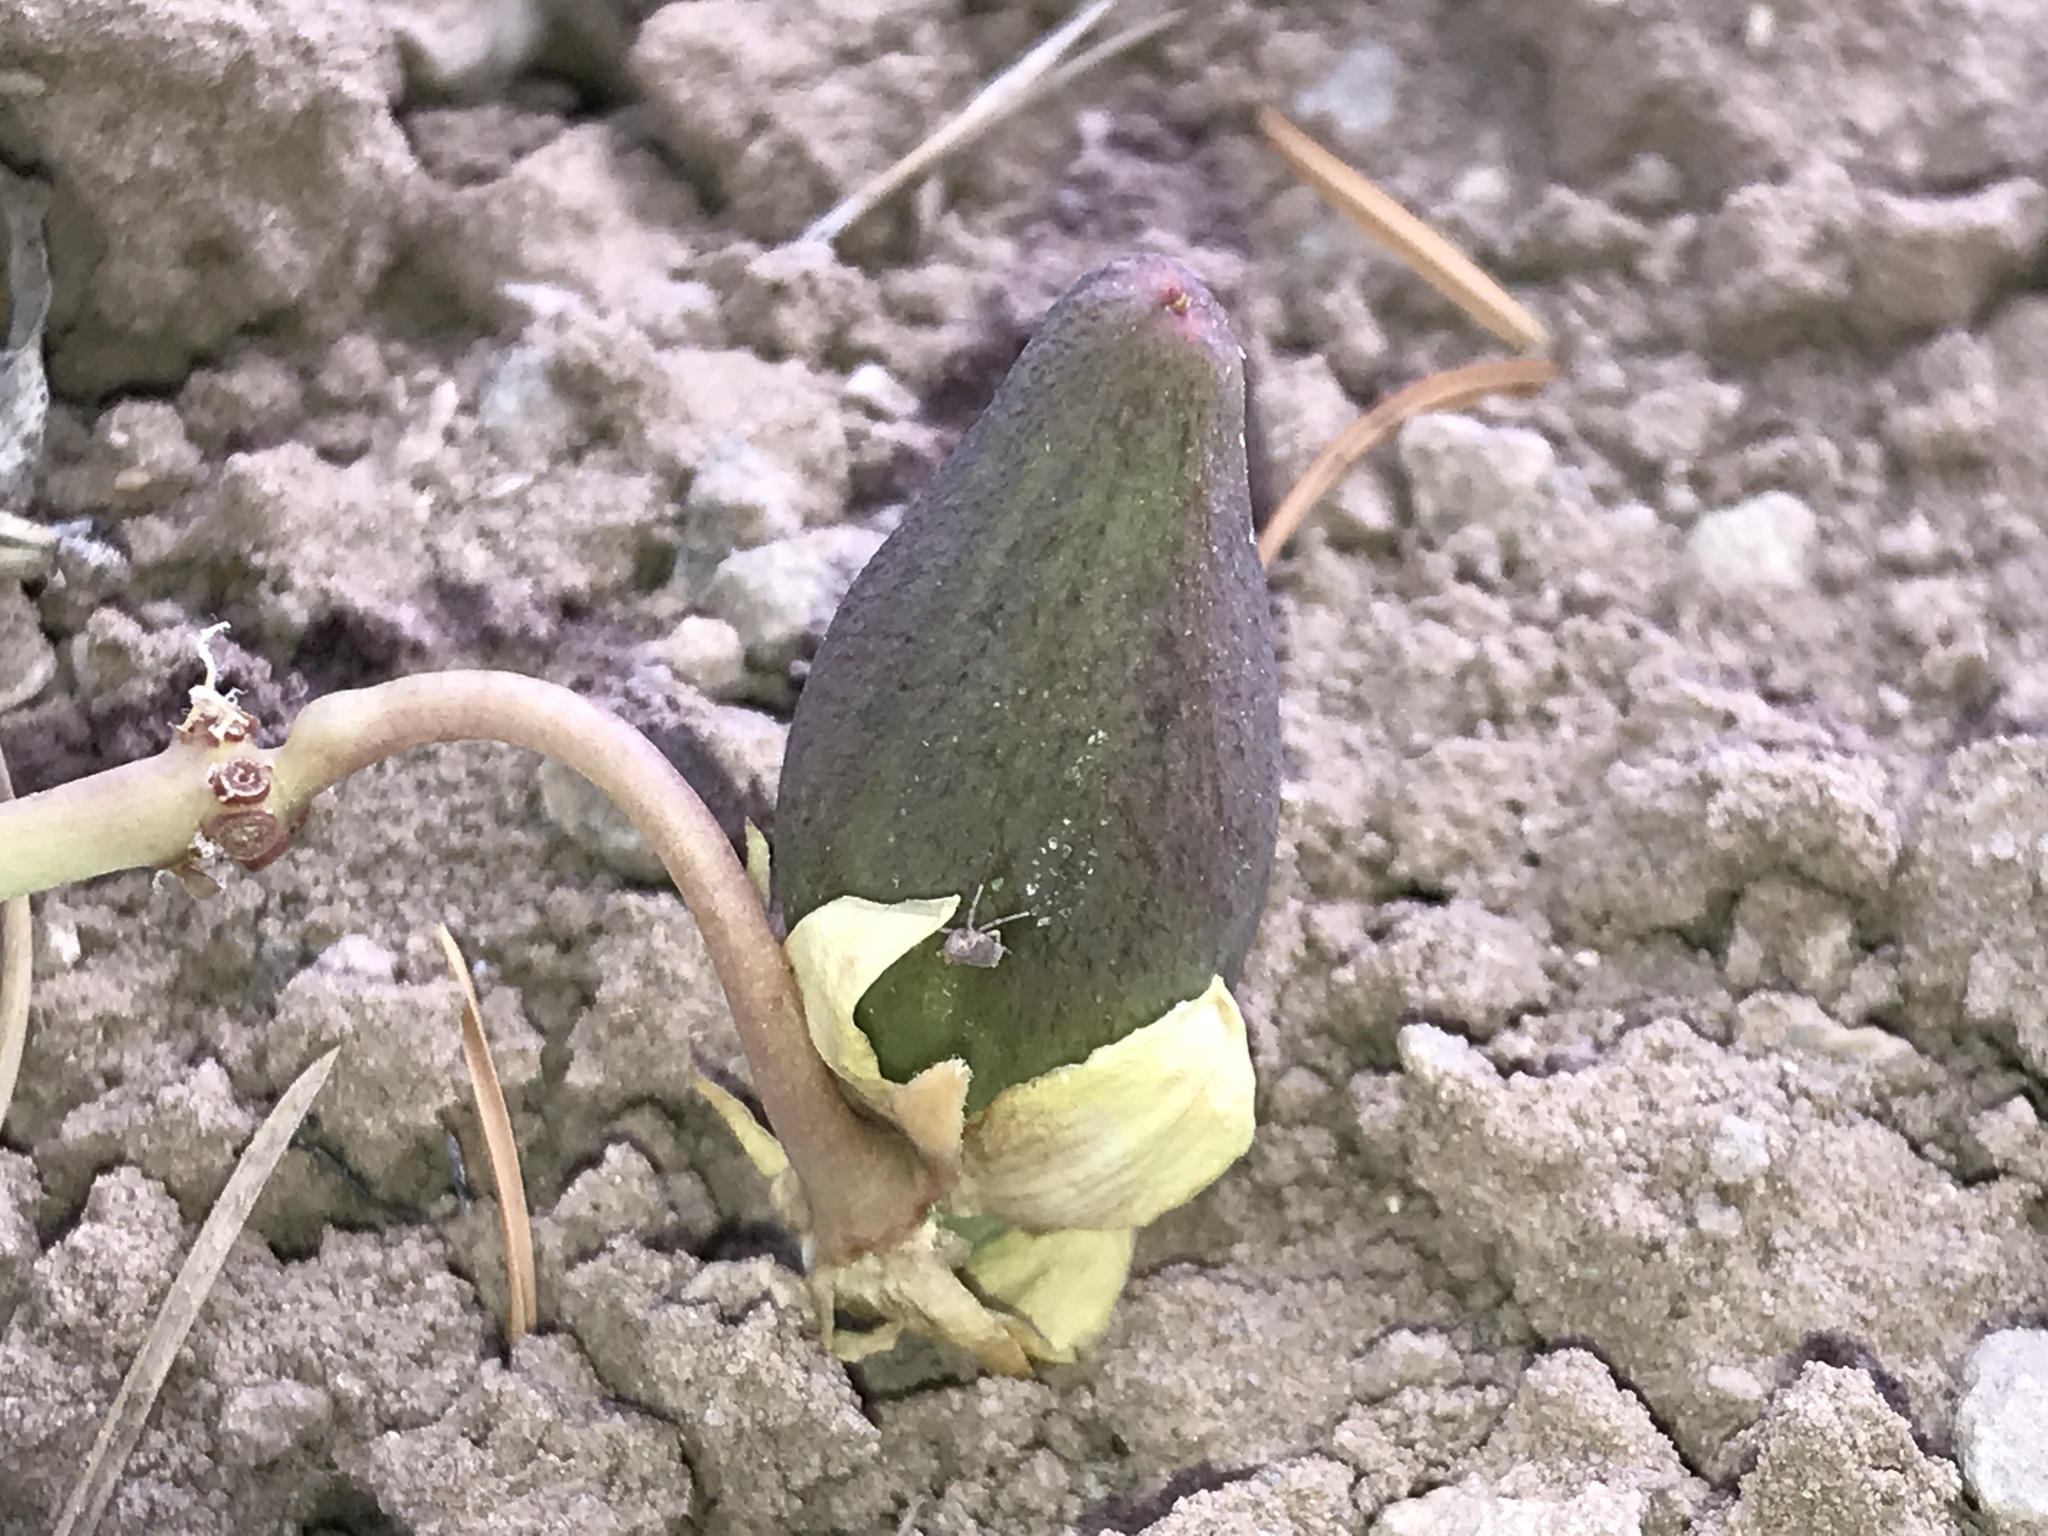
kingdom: Plantae
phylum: Tracheophyta
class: Magnoliopsida
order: Gentianales
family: Apocynaceae
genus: Asclepias
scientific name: Asclepias cryptoceras
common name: Humboldt mountains milkweed
